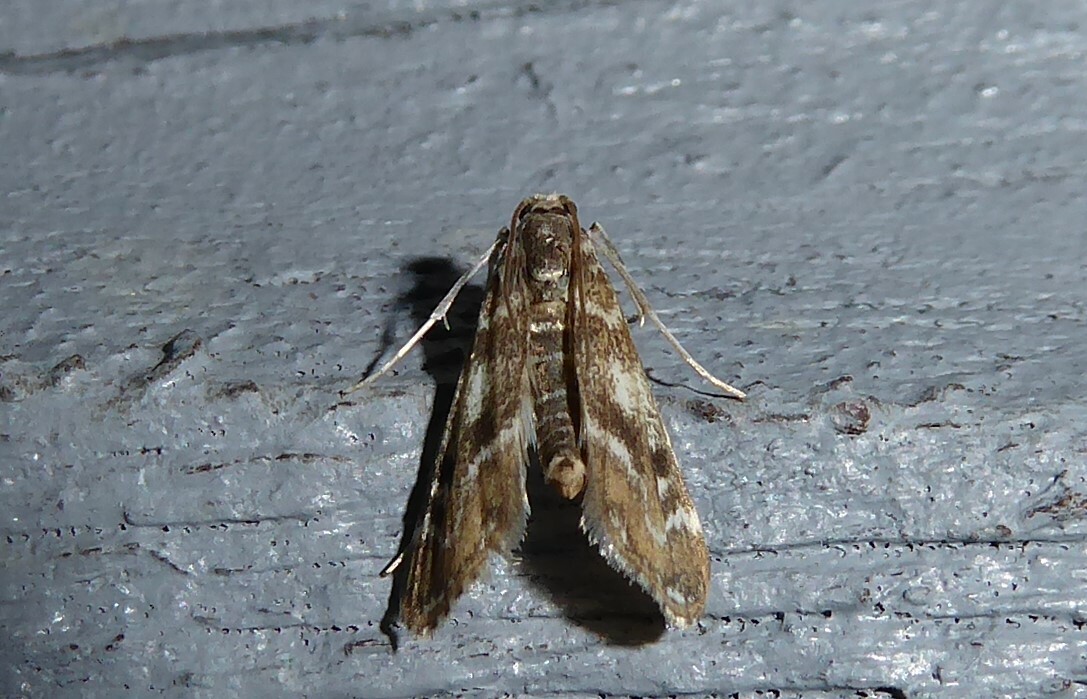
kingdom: Animalia
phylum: Arthropoda
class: Insecta
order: Lepidoptera
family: Crambidae
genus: Hygraula
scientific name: Hygraula nitens
